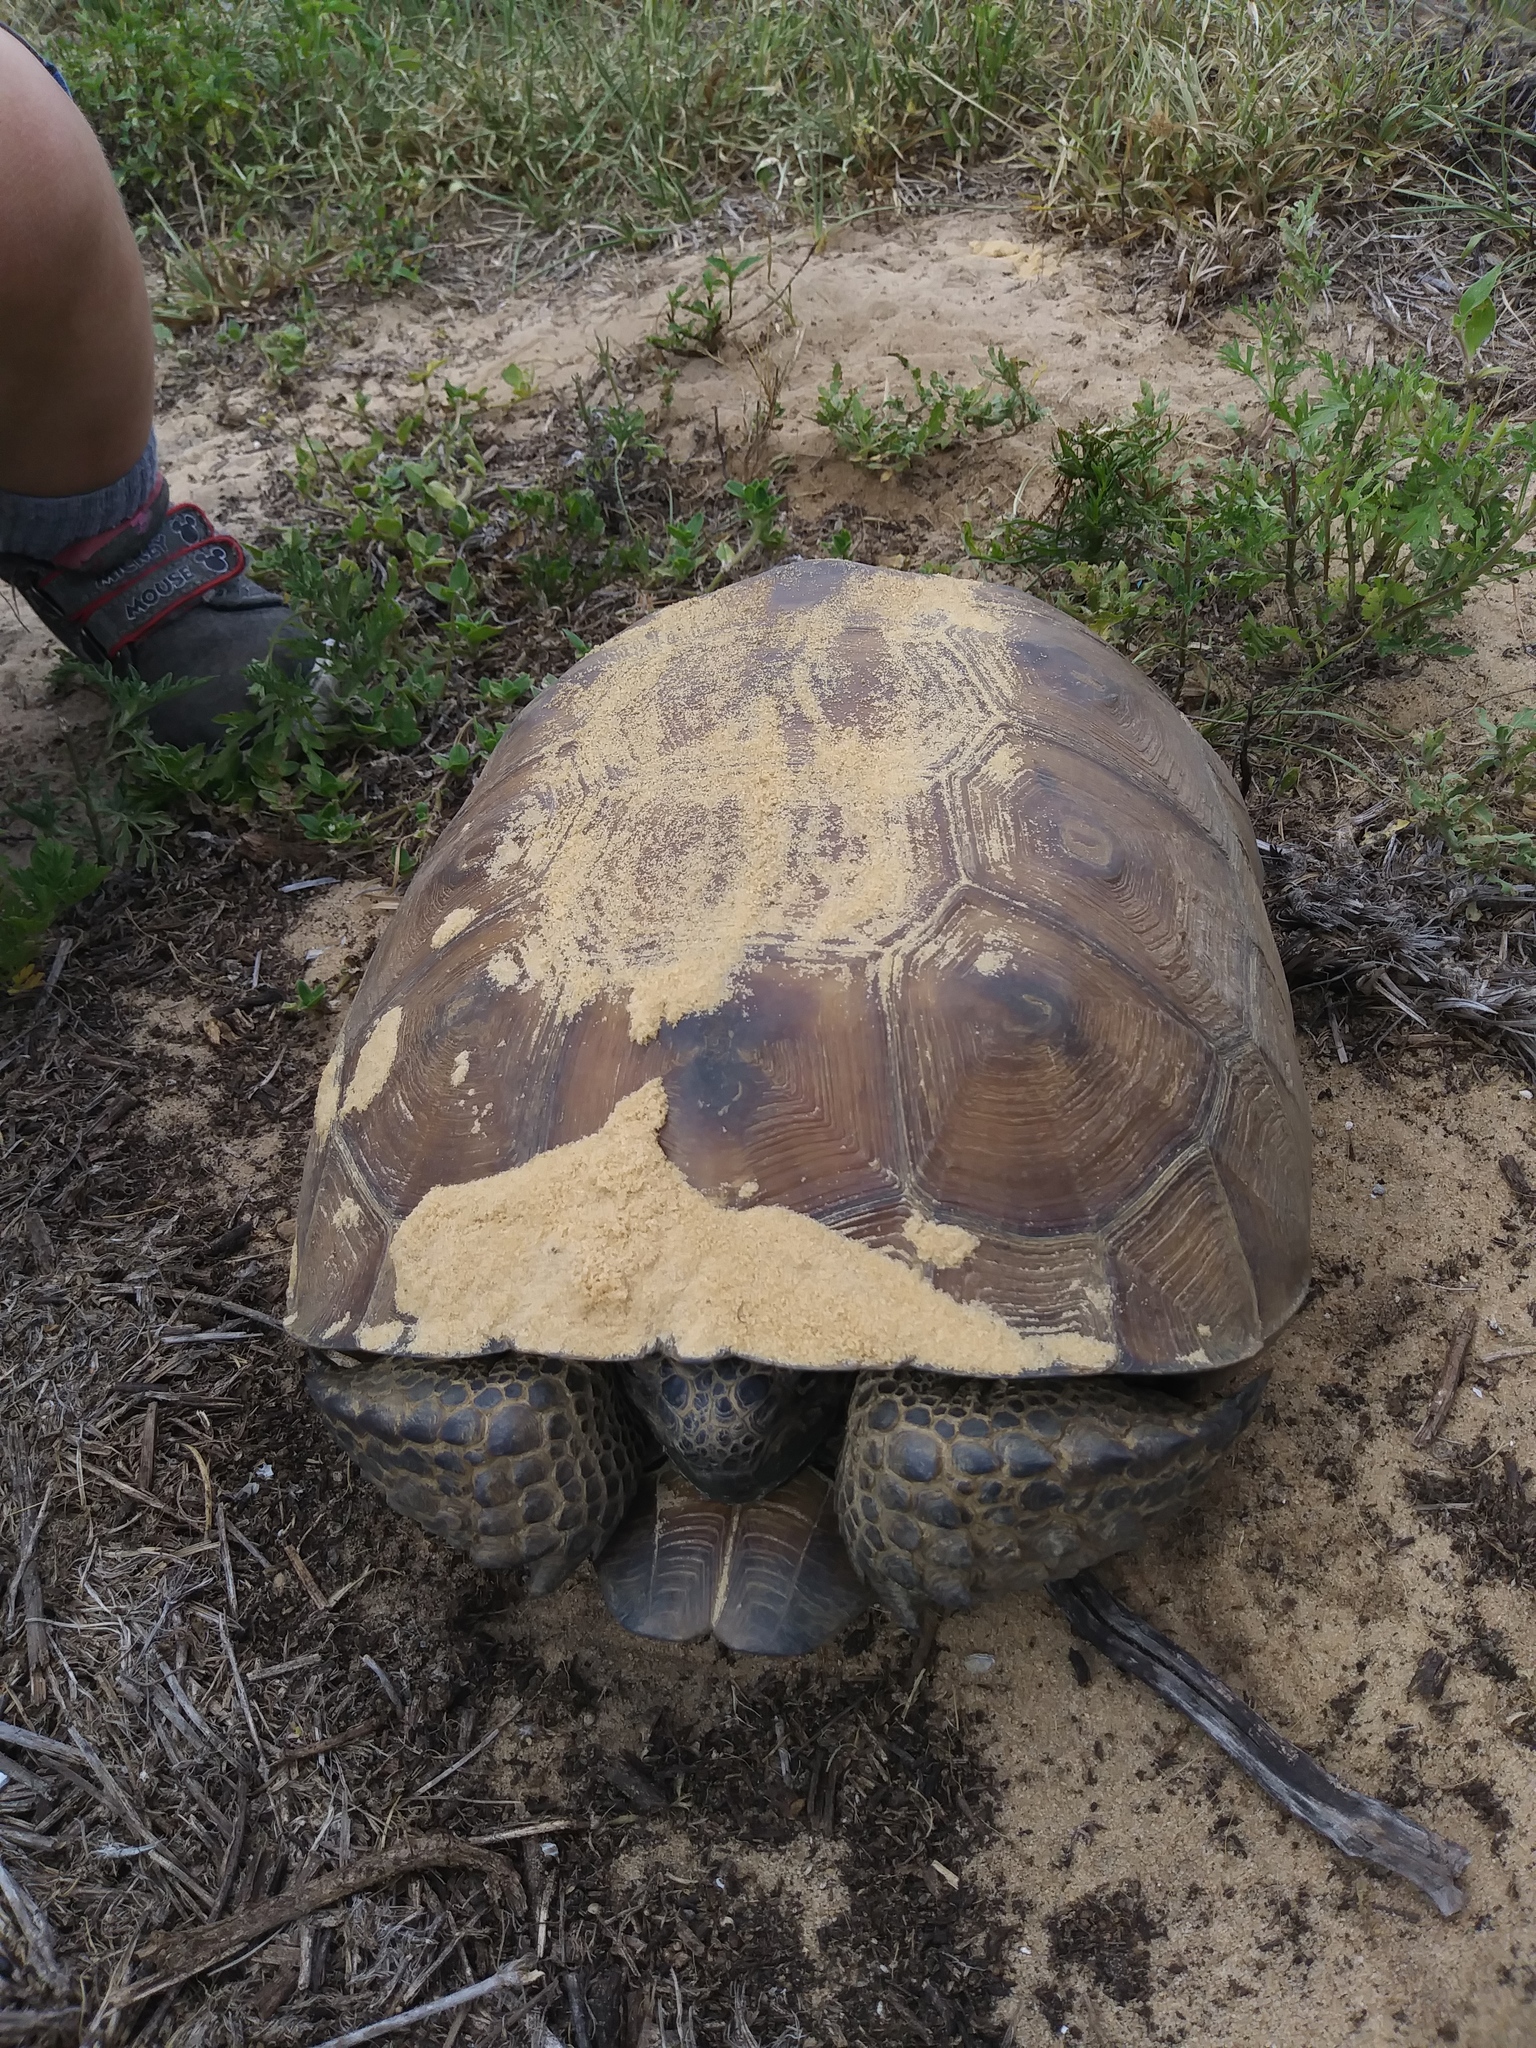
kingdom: Animalia
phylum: Chordata
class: Testudines
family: Testudinidae
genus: Gopherus
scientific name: Gopherus polyphemus
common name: Florida gopher tortoise
